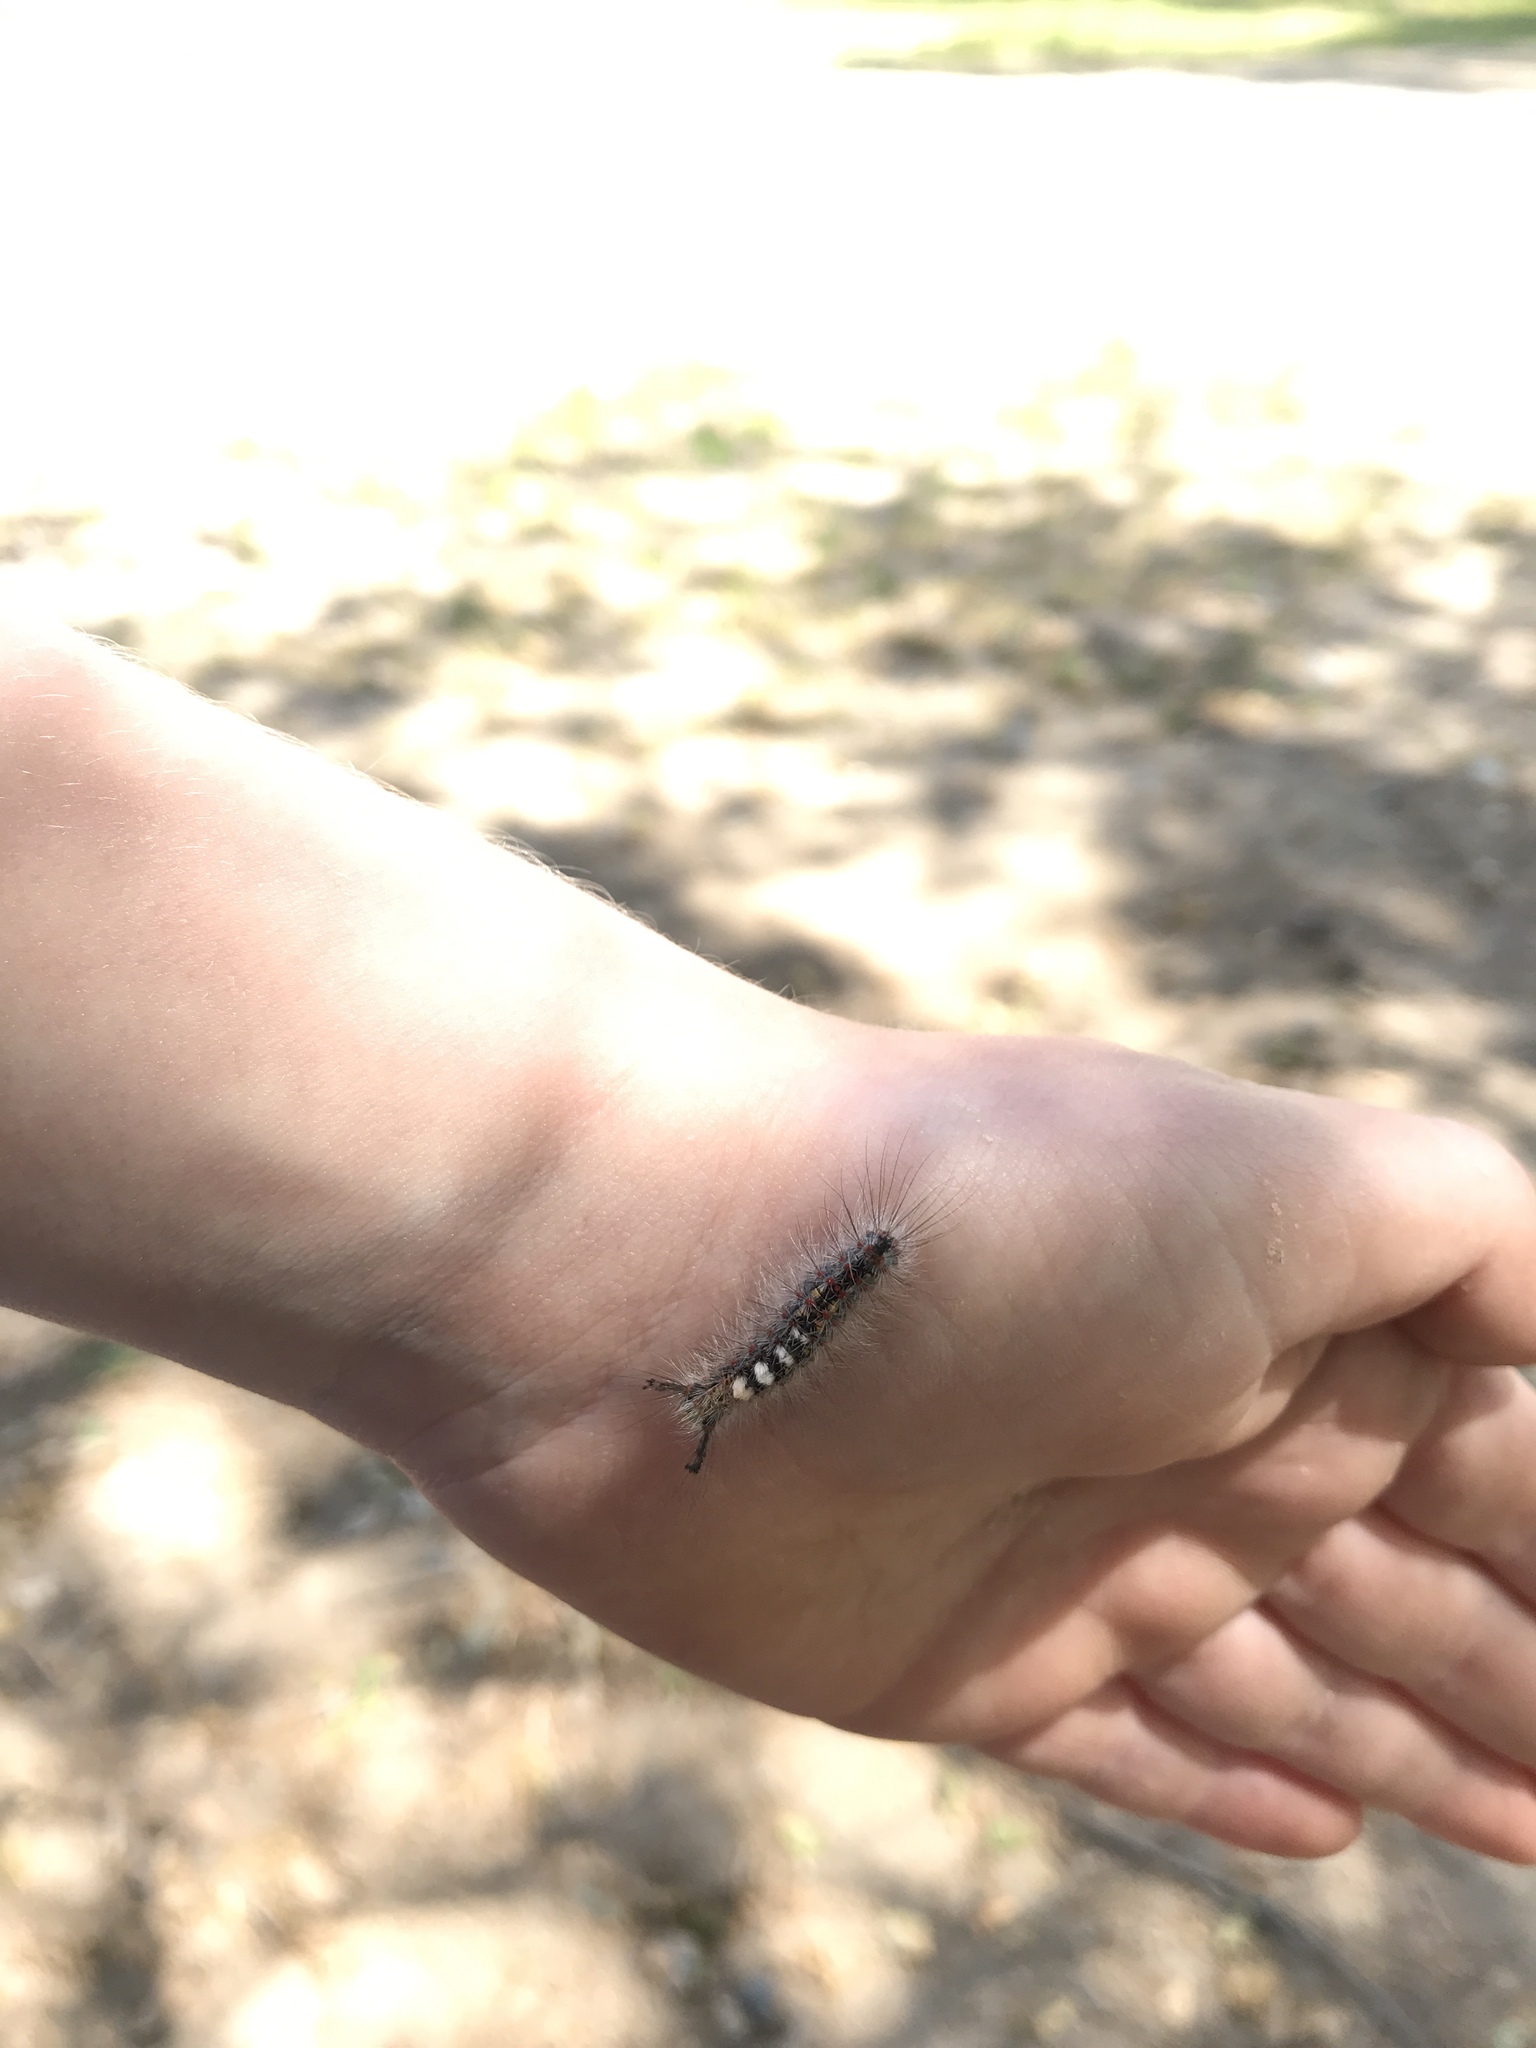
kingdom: Animalia
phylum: Arthropoda
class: Insecta
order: Lepidoptera
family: Erebidae
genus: Orgyia
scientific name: Orgyia vetusta
